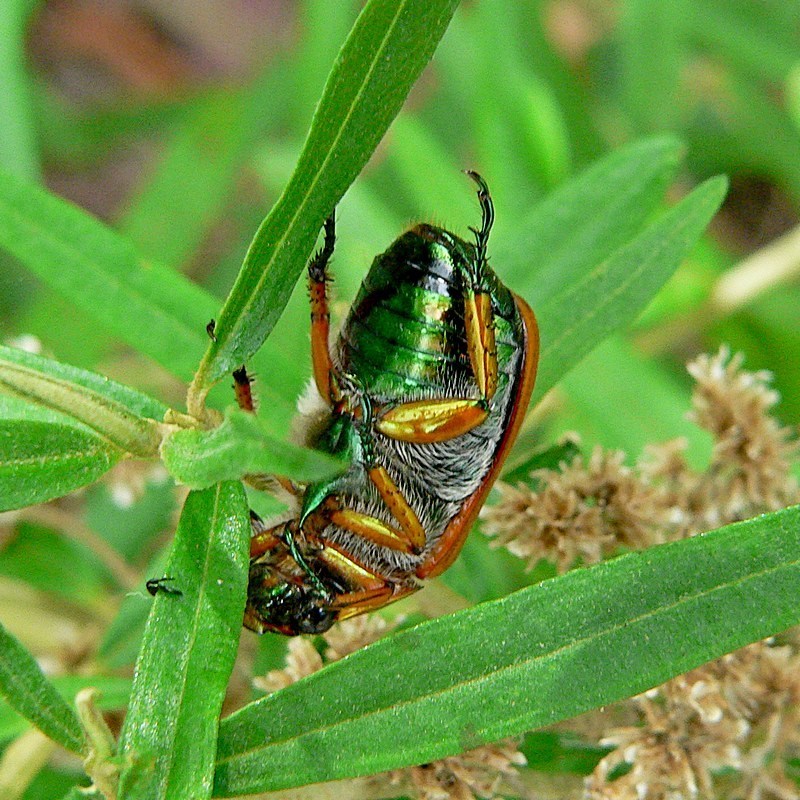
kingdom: Animalia
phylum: Arthropoda
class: Insecta
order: Coleoptera
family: Scarabaeidae
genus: Anoplognathus
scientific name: Anoplognathus brunnipennis
